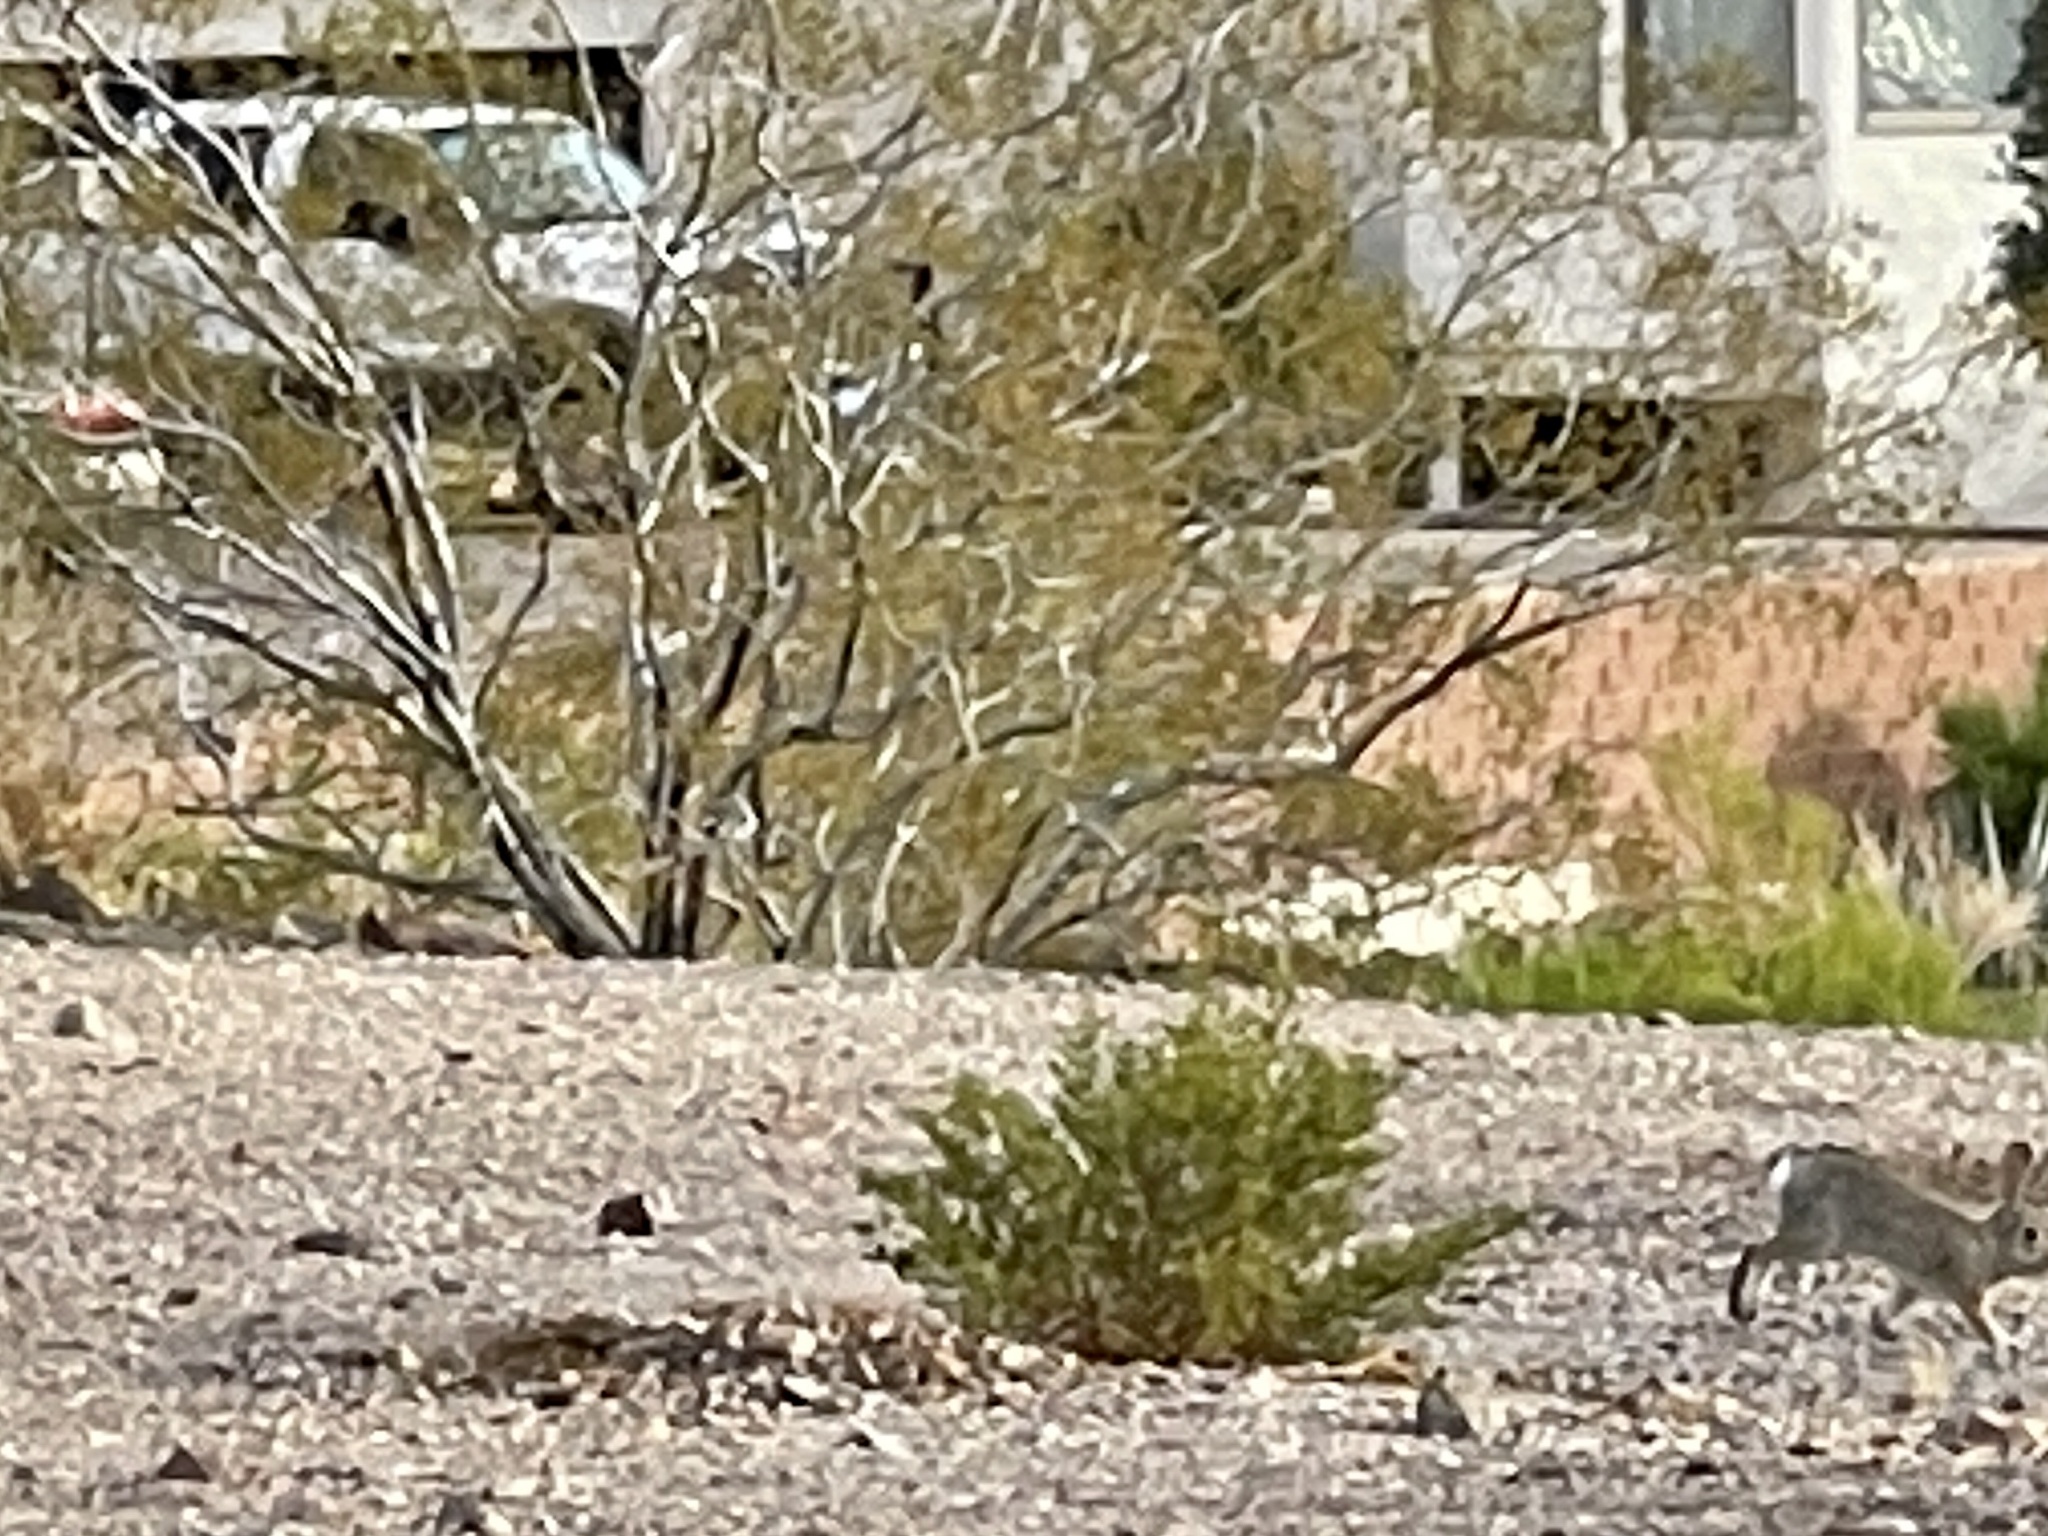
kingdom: Plantae
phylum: Tracheophyta
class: Magnoliopsida
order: Zygophyllales
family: Zygophyllaceae
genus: Larrea
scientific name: Larrea tridentata
